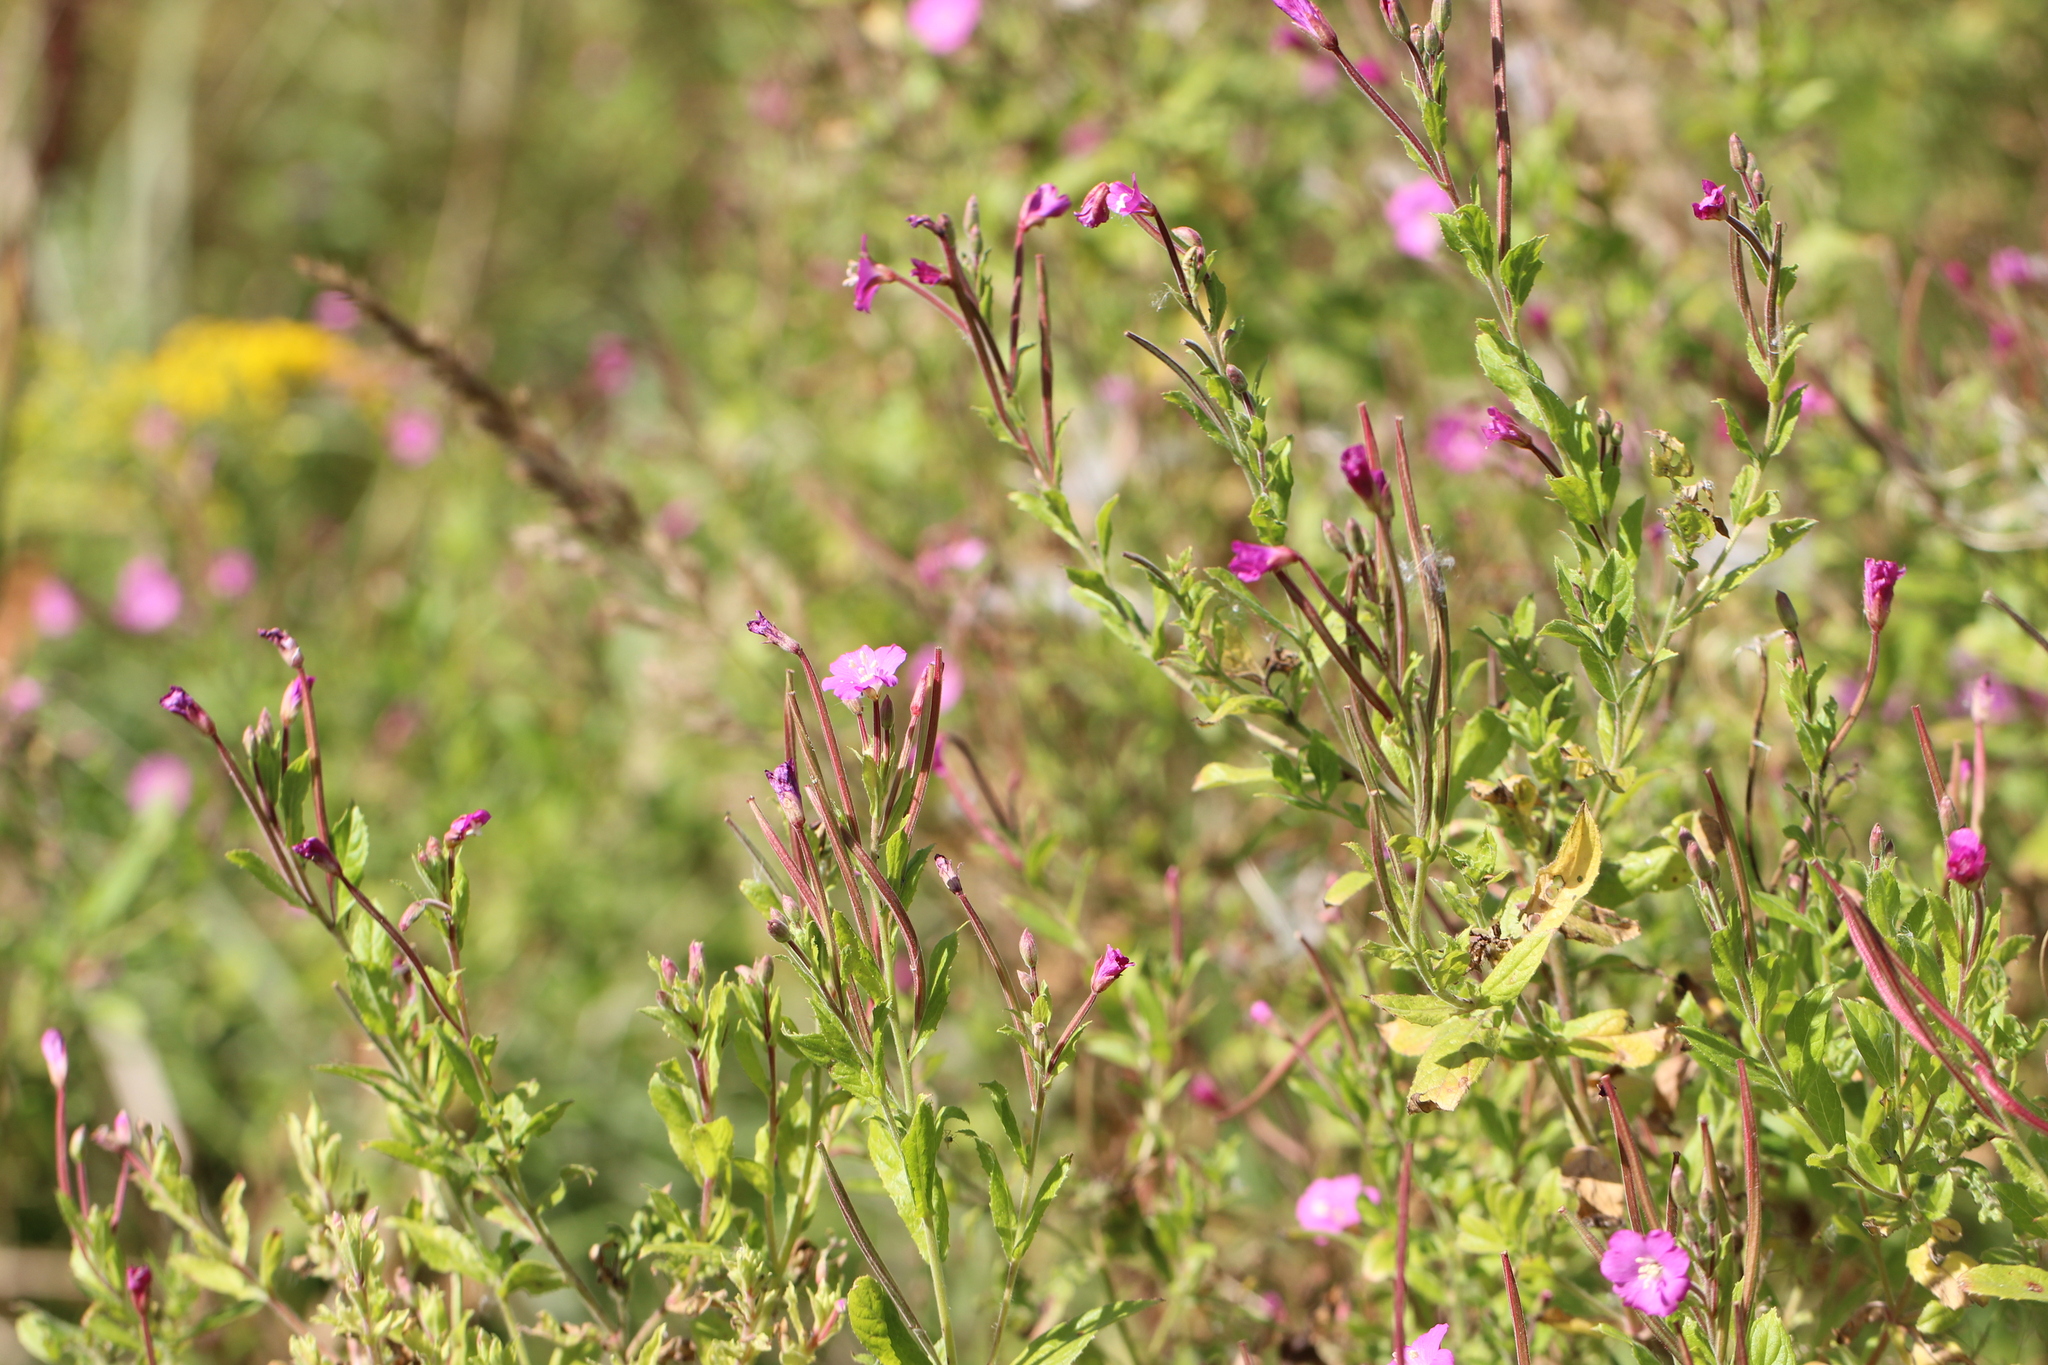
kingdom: Plantae
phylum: Tracheophyta
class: Magnoliopsida
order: Myrtales
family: Onagraceae
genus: Epilobium
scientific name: Epilobium hirsutum
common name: Great willowherb
